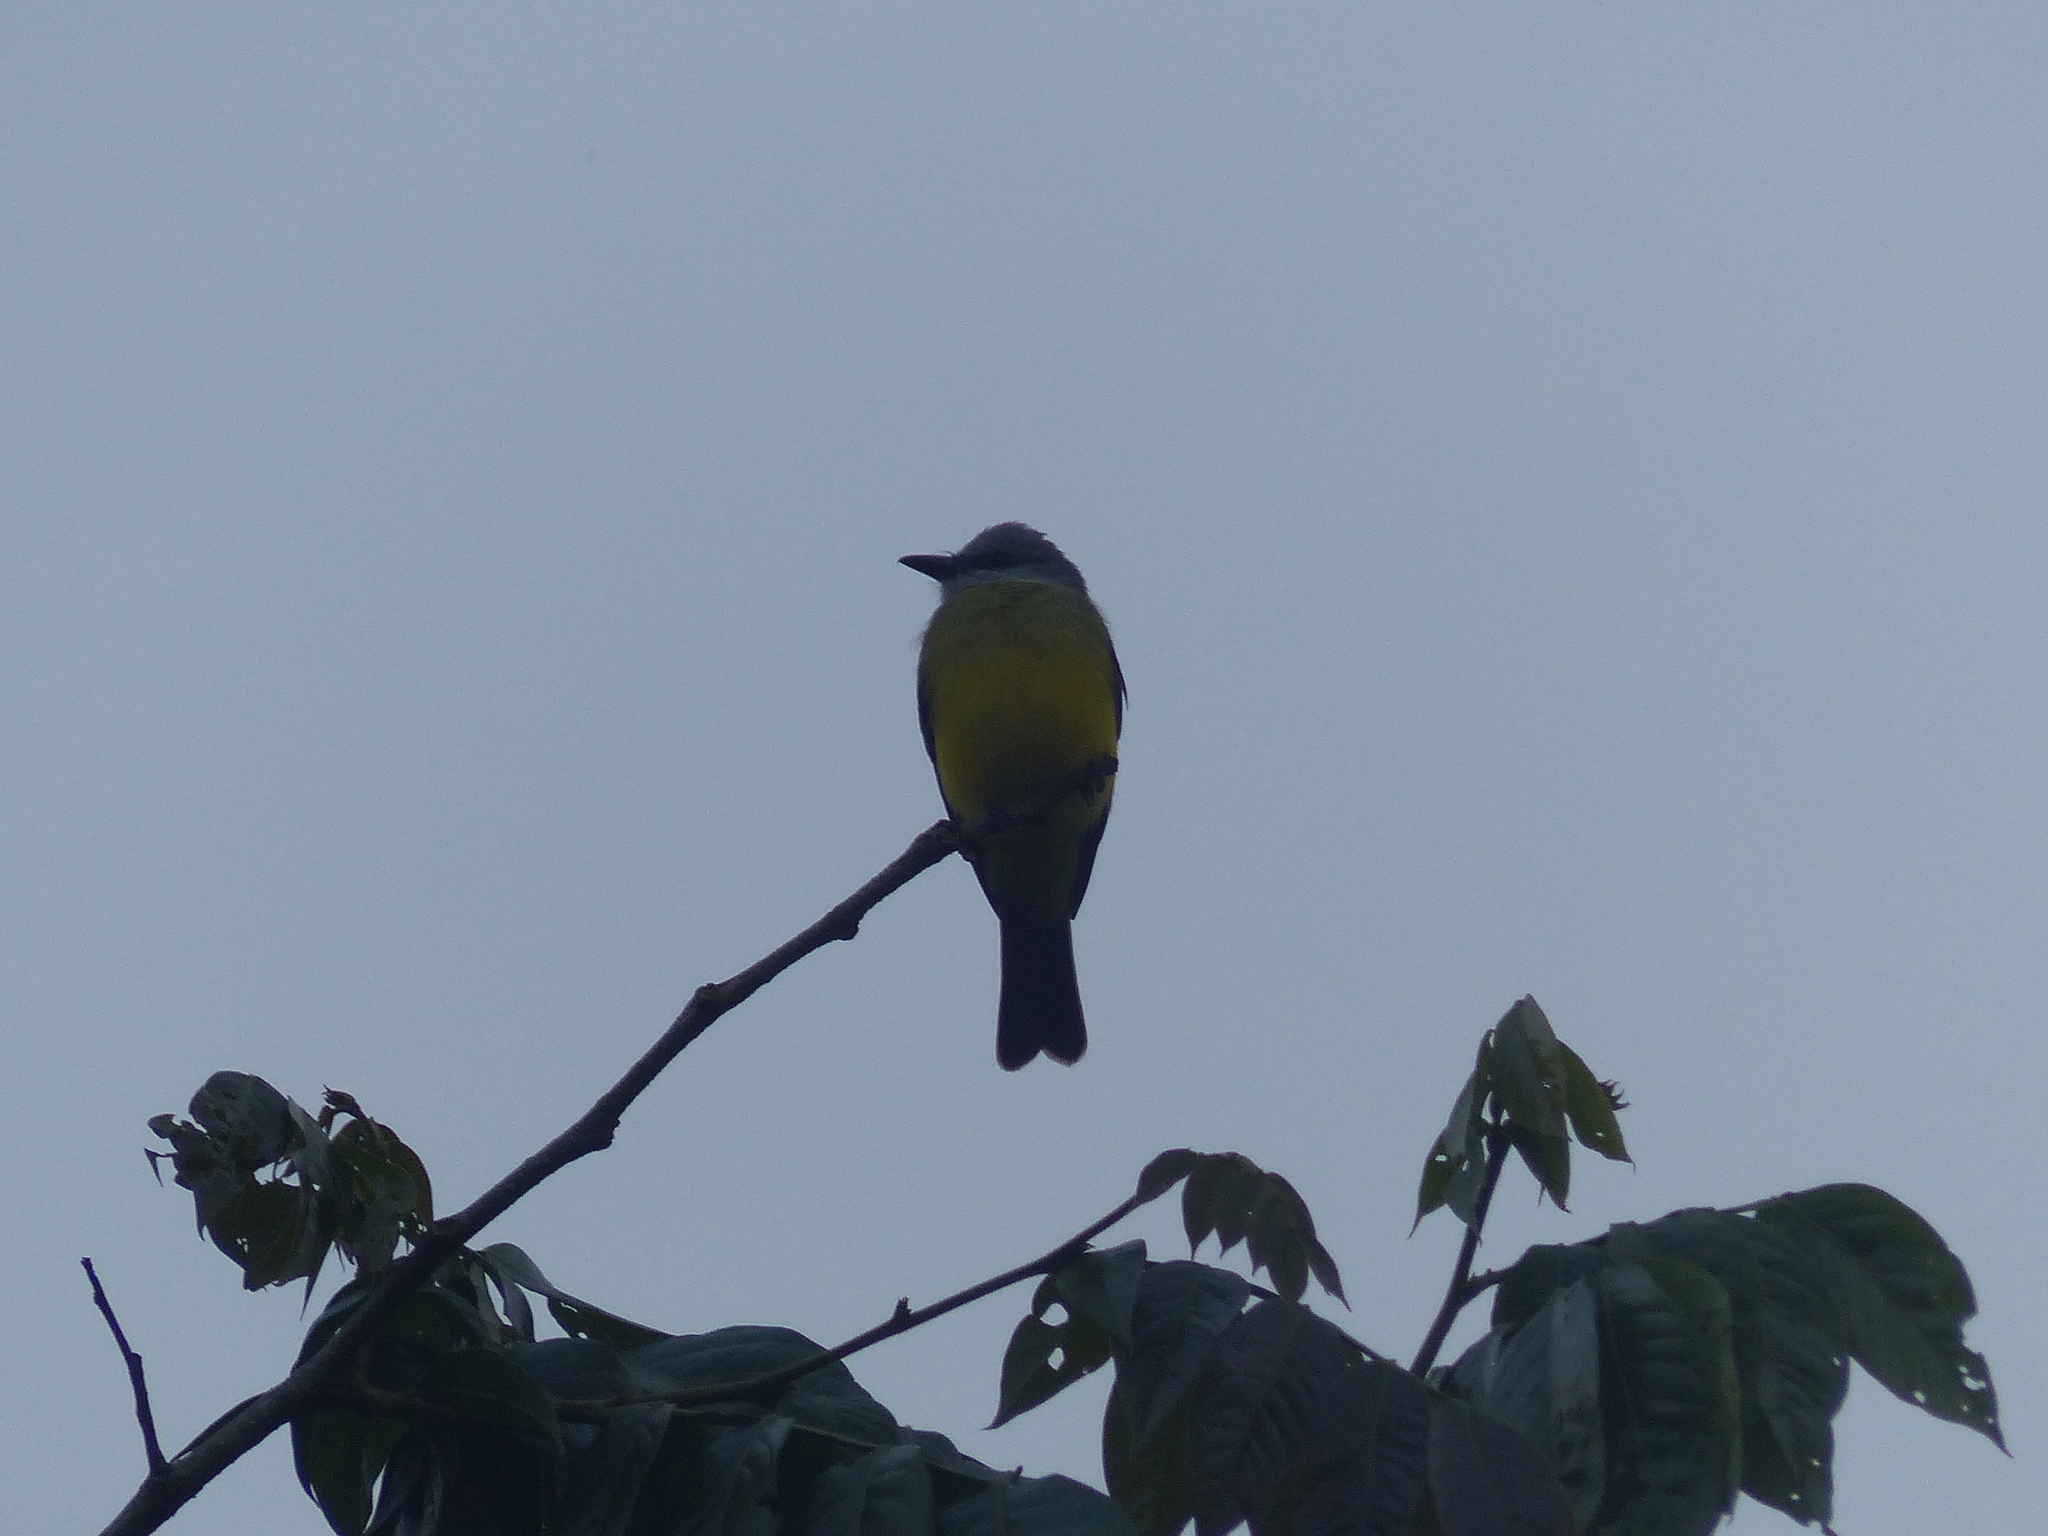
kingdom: Animalia
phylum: Chordata
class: Aves
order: Passeriformes
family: Tyrannidae
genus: Tyrannus
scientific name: Tyrannus melancholicus
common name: Tropical kingbird
